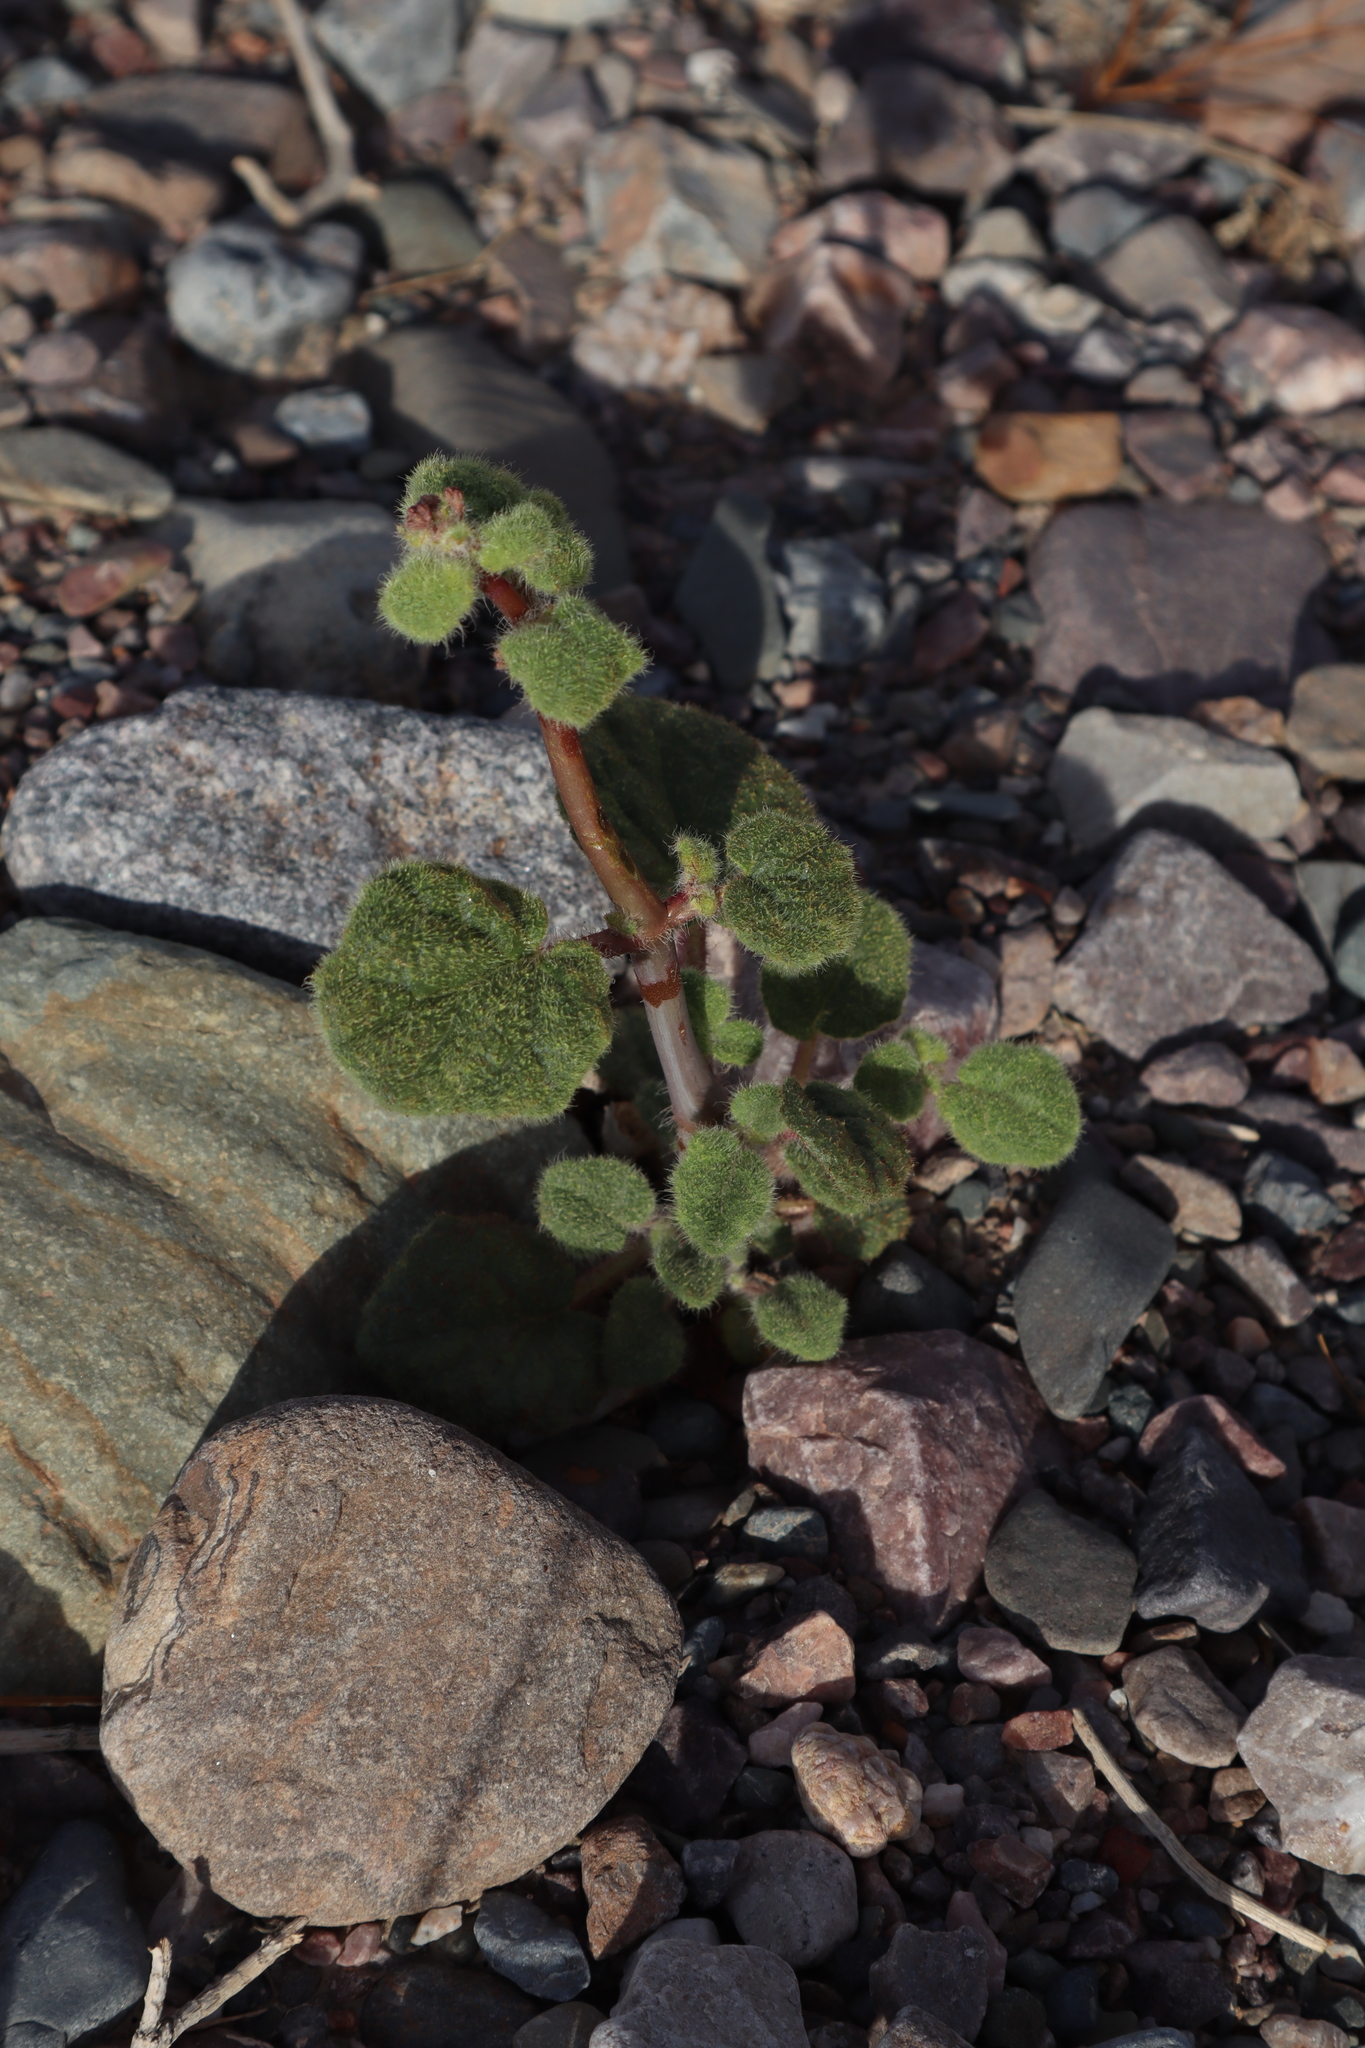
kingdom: Plantae
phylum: Tracheophyta
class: Magnoliopsida
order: Caryophyllales
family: Nyctaginaceae
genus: Anulocaulis
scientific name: Anulocaulis annulatus
